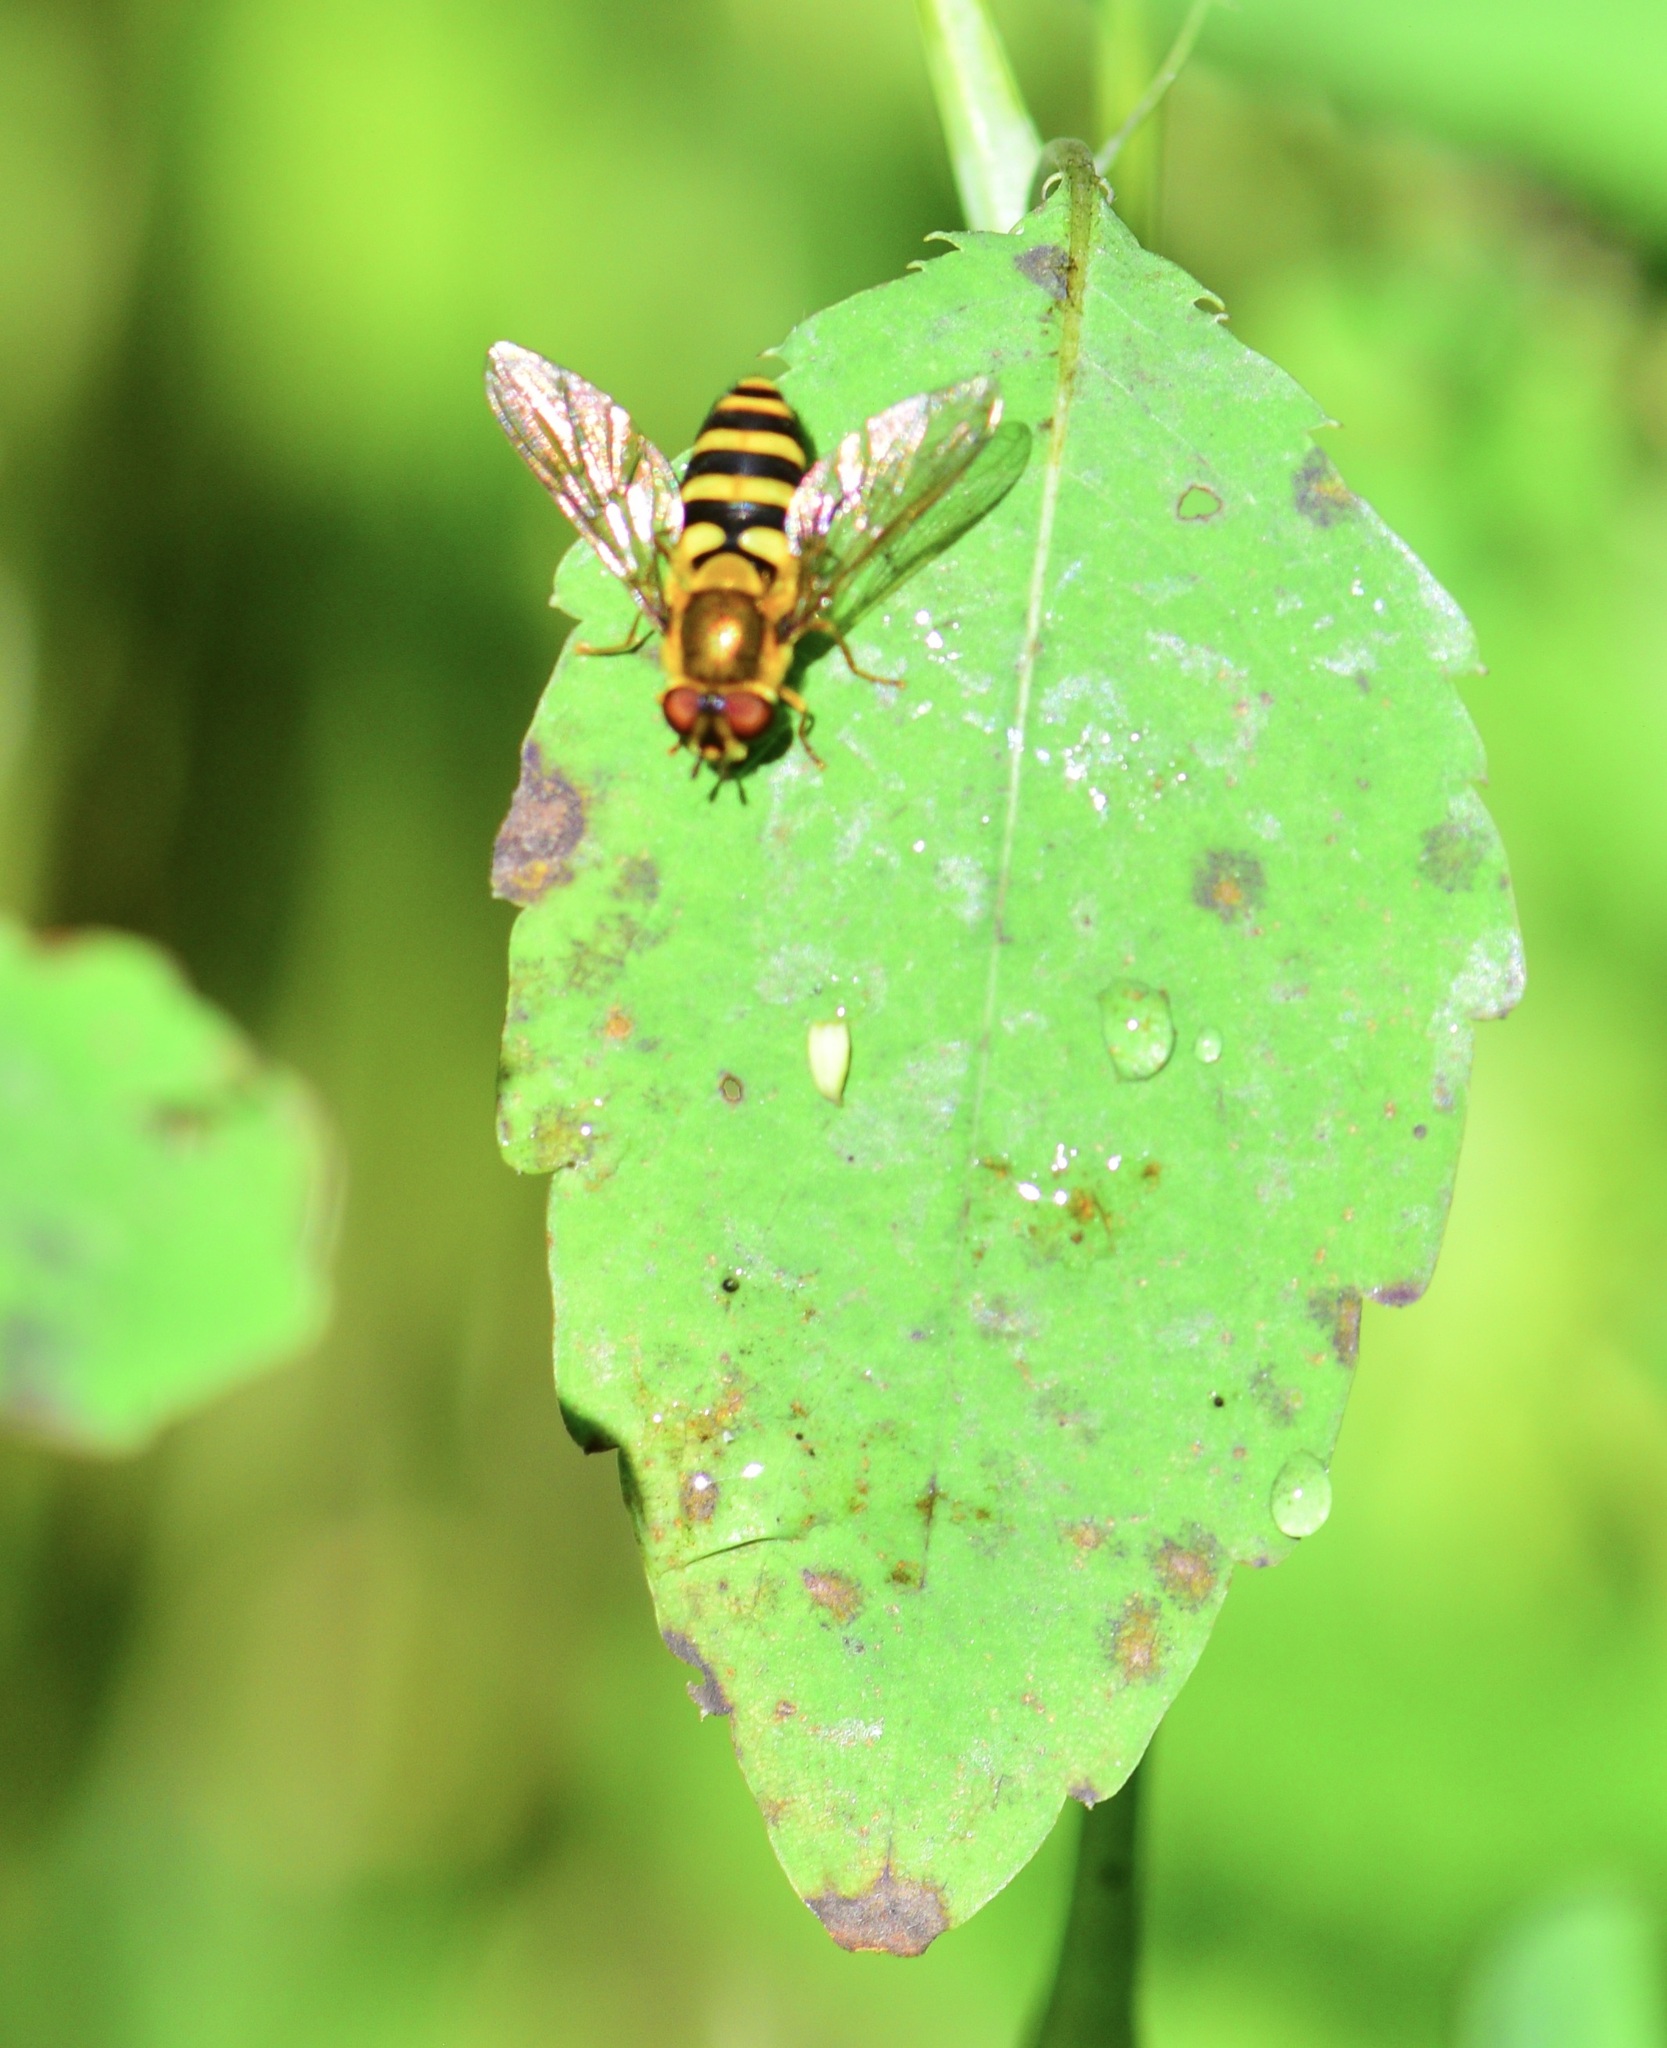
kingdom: Animalia
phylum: Arthropoda
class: Insecta
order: Diptera
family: Syrphidae
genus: Syrphus
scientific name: Syrphus
